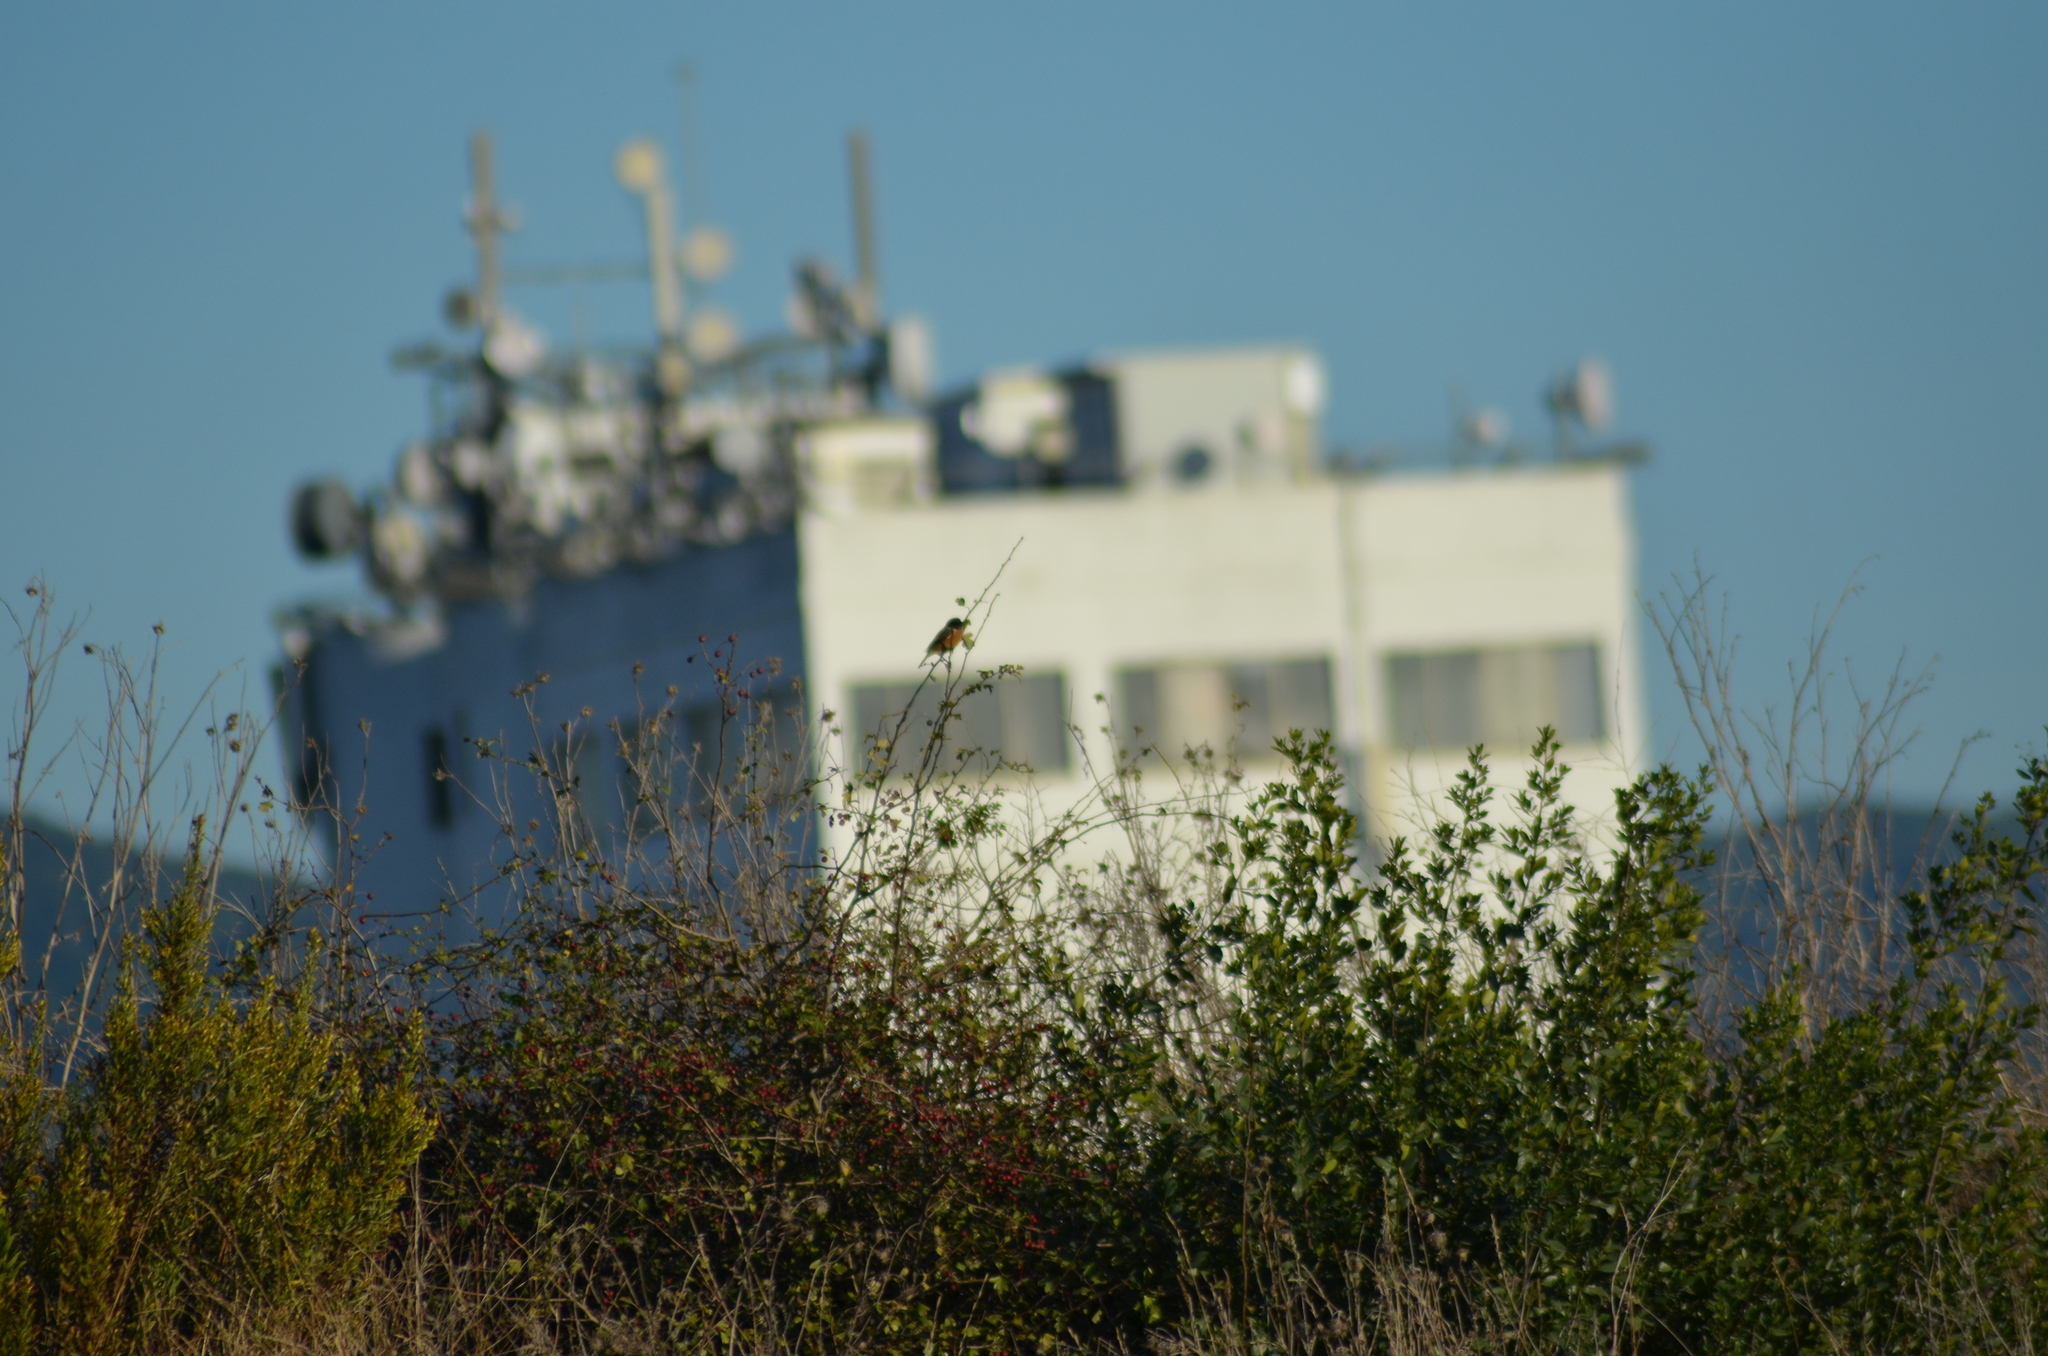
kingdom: Animalia
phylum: Chordata
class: Aves
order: Passeriformes
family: Muscicapidae
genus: Saxicola
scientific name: Saxicola rubicola
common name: European stonechat
